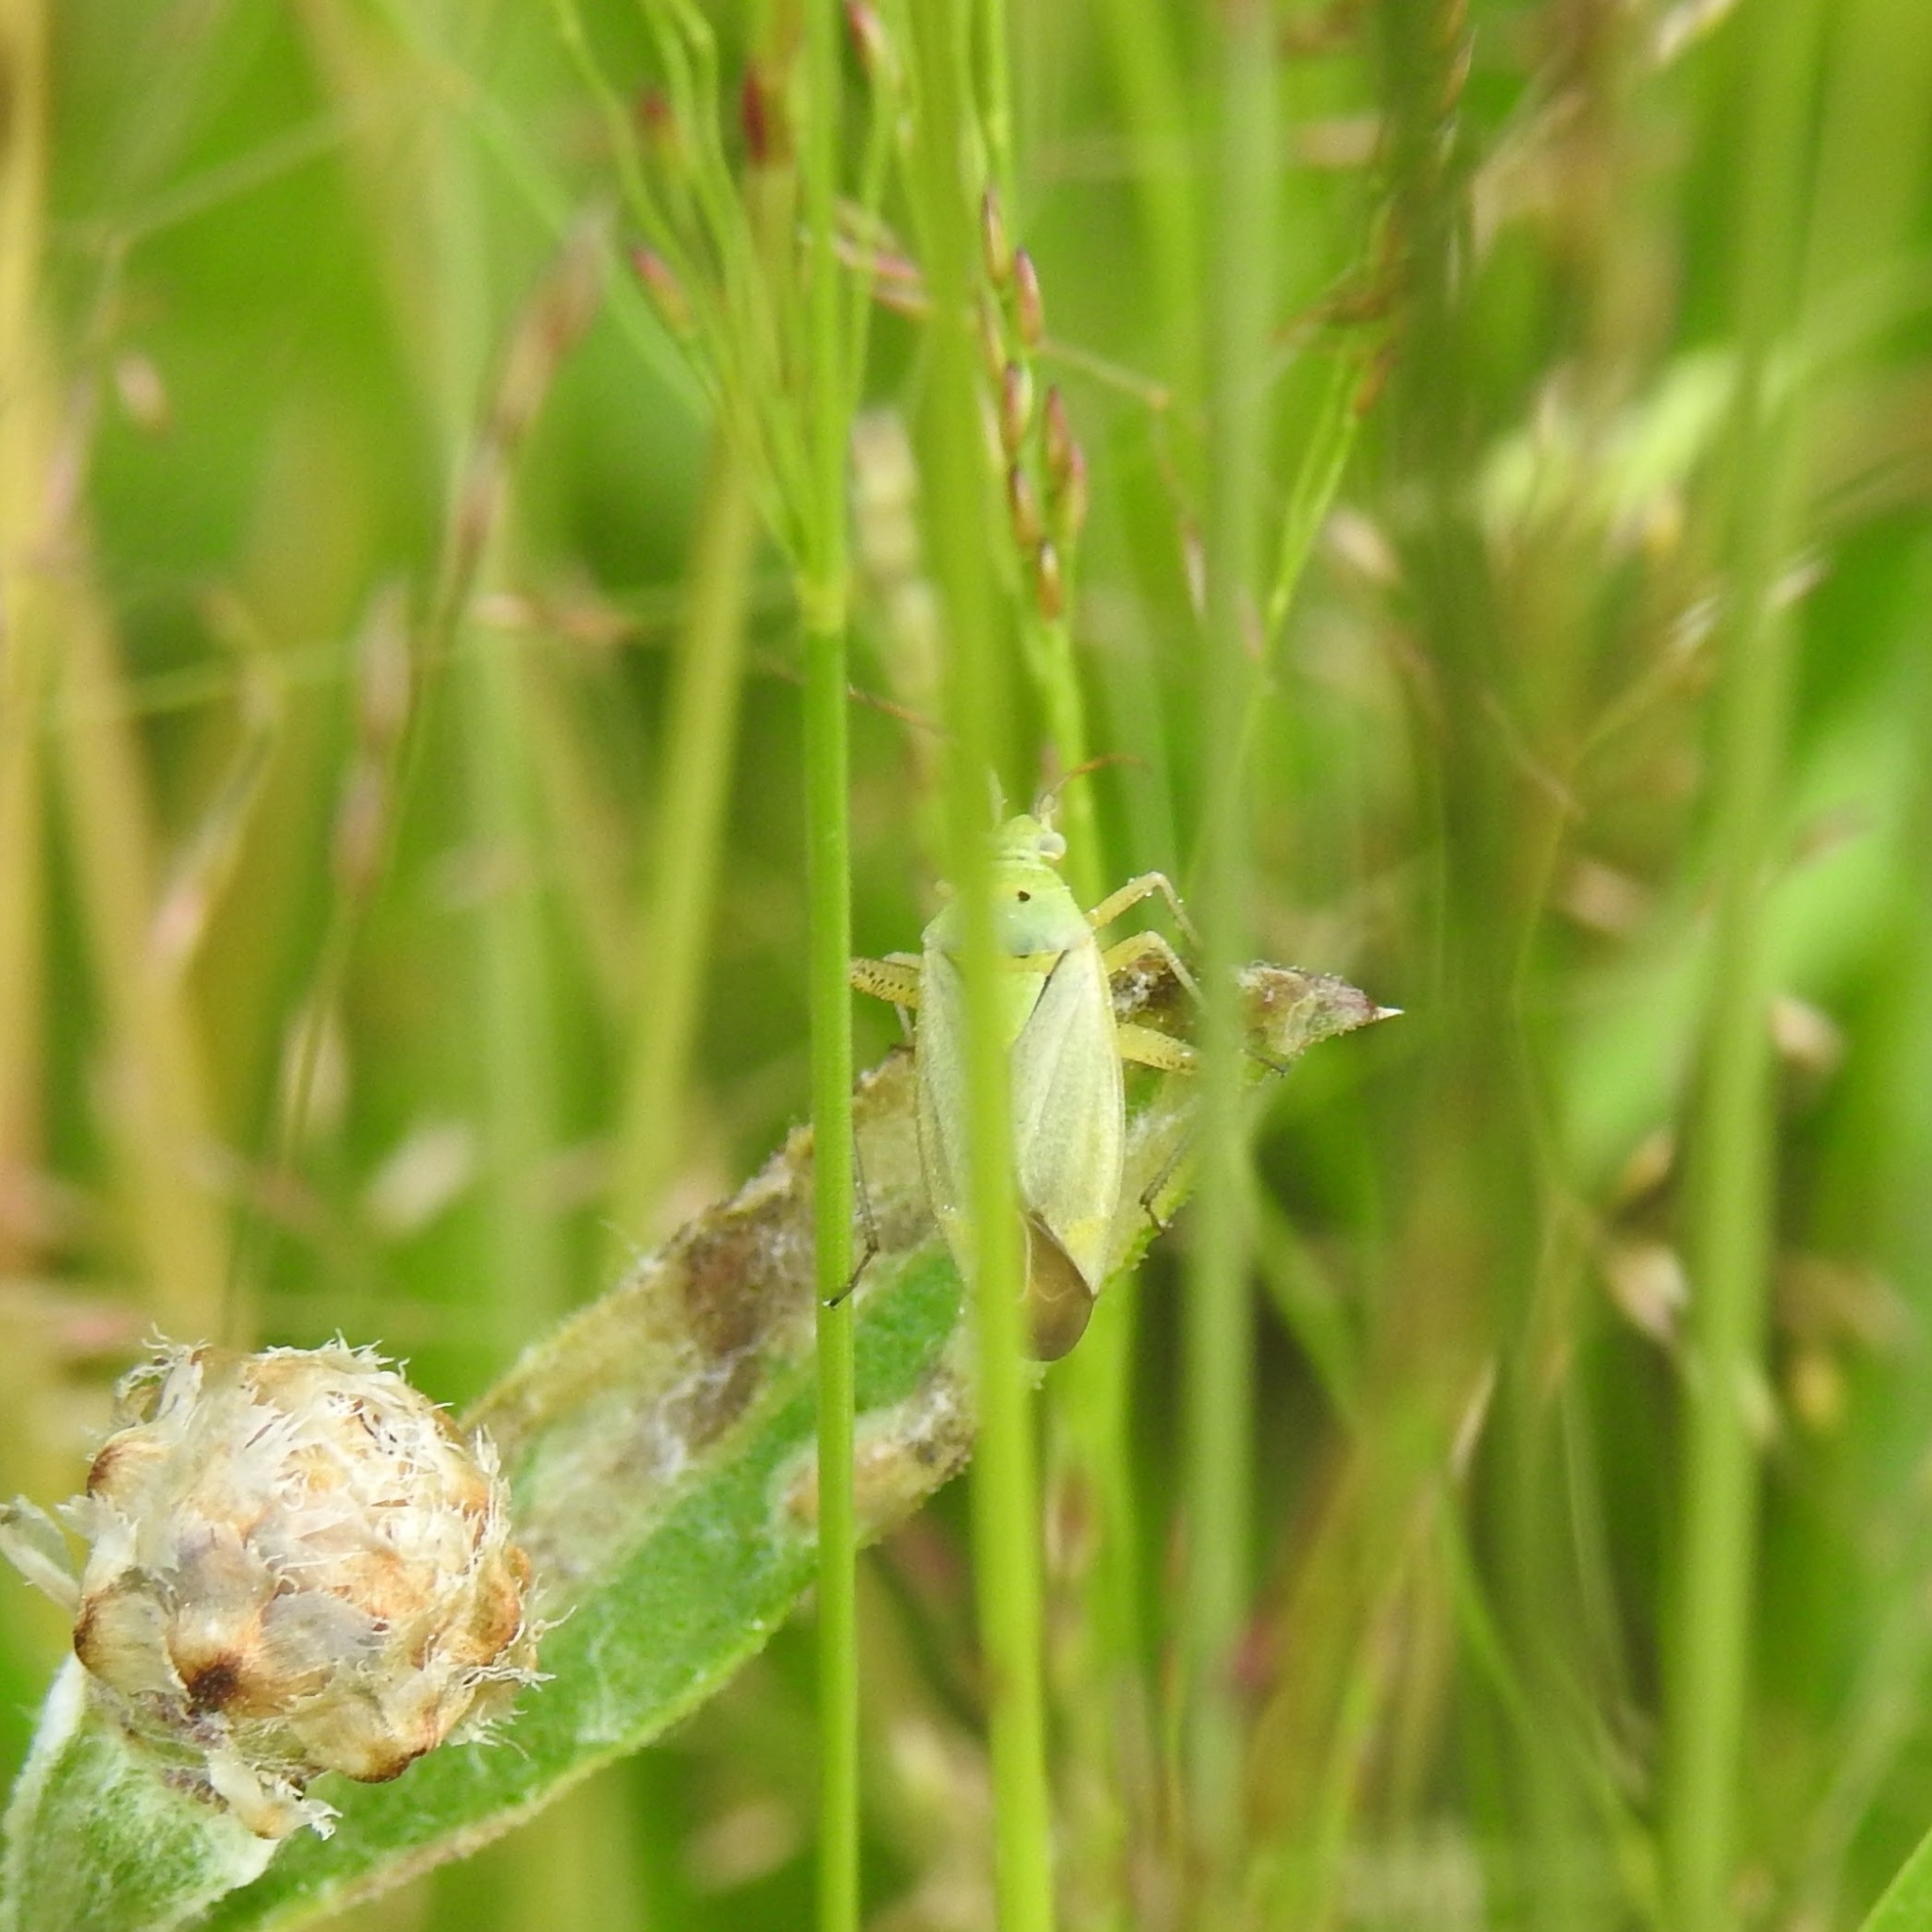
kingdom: Animalia
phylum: Arthropoda
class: Insecta
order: Hemiptera
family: Miridae
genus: Closterotomus
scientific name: Closterotomus norvegicus
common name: Plant bug
